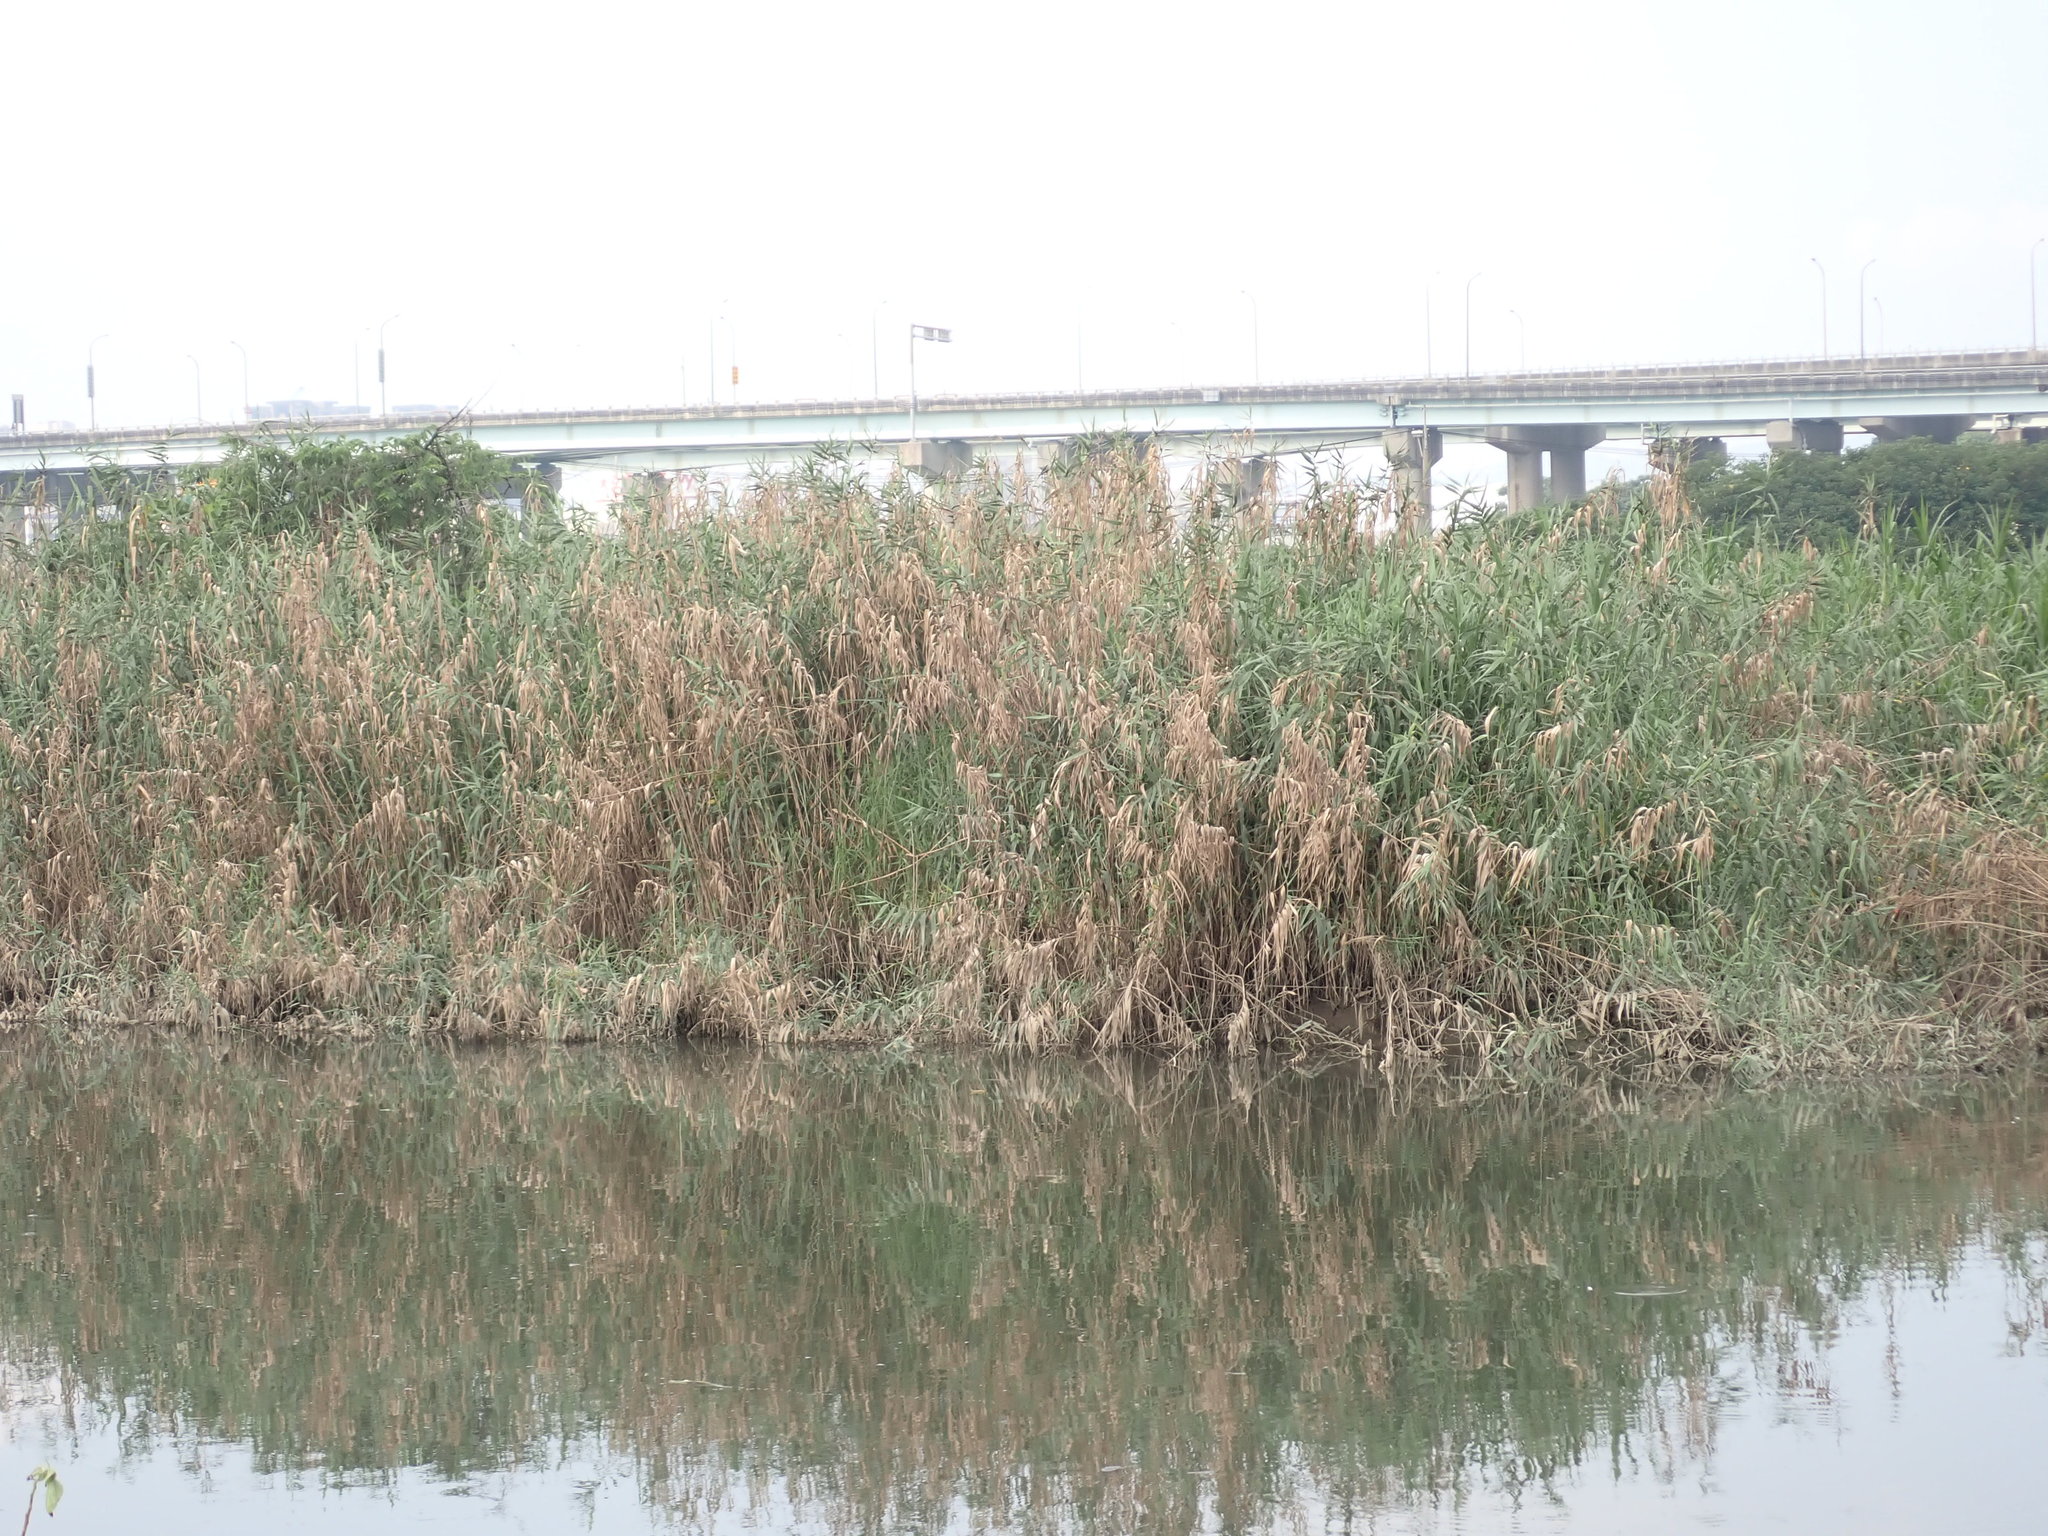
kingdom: Plantae
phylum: Tracheophyta
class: Liliopsida
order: Poales
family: Poaceae
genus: Phragmites
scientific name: Phragmites australis
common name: Common reed
